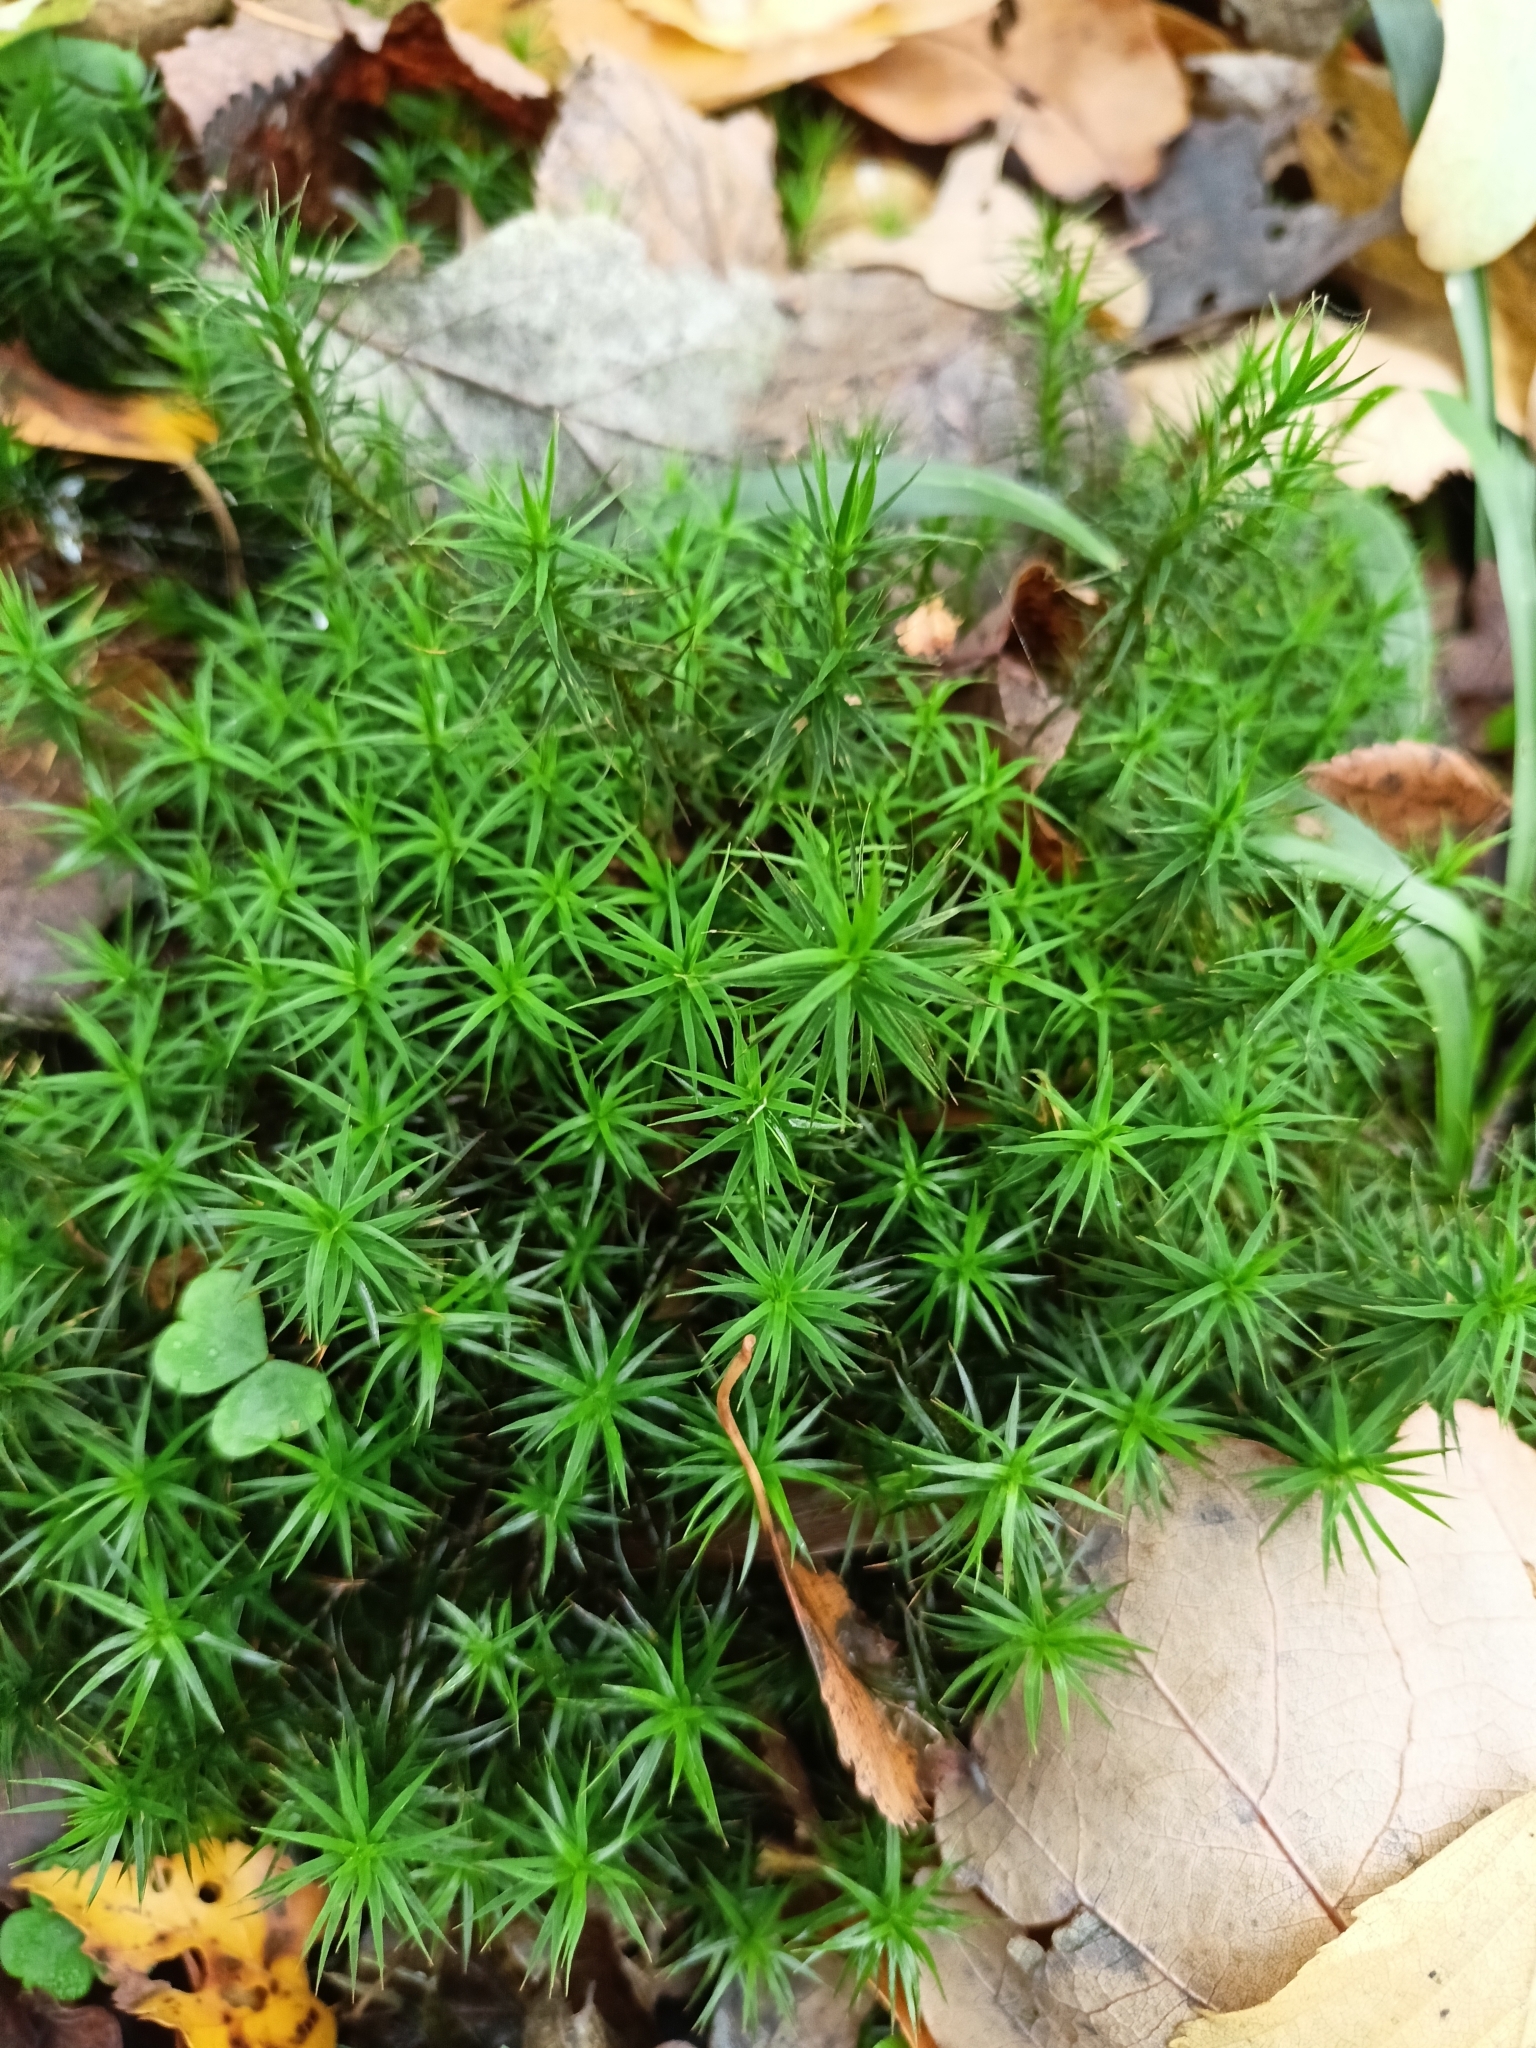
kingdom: Plantae
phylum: Bryophyta
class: Polytrichopsida
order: Polytrichales
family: Polytrichaceae
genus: Polytrichum
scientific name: Polytrichum formosum
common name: Bank haircap moss
